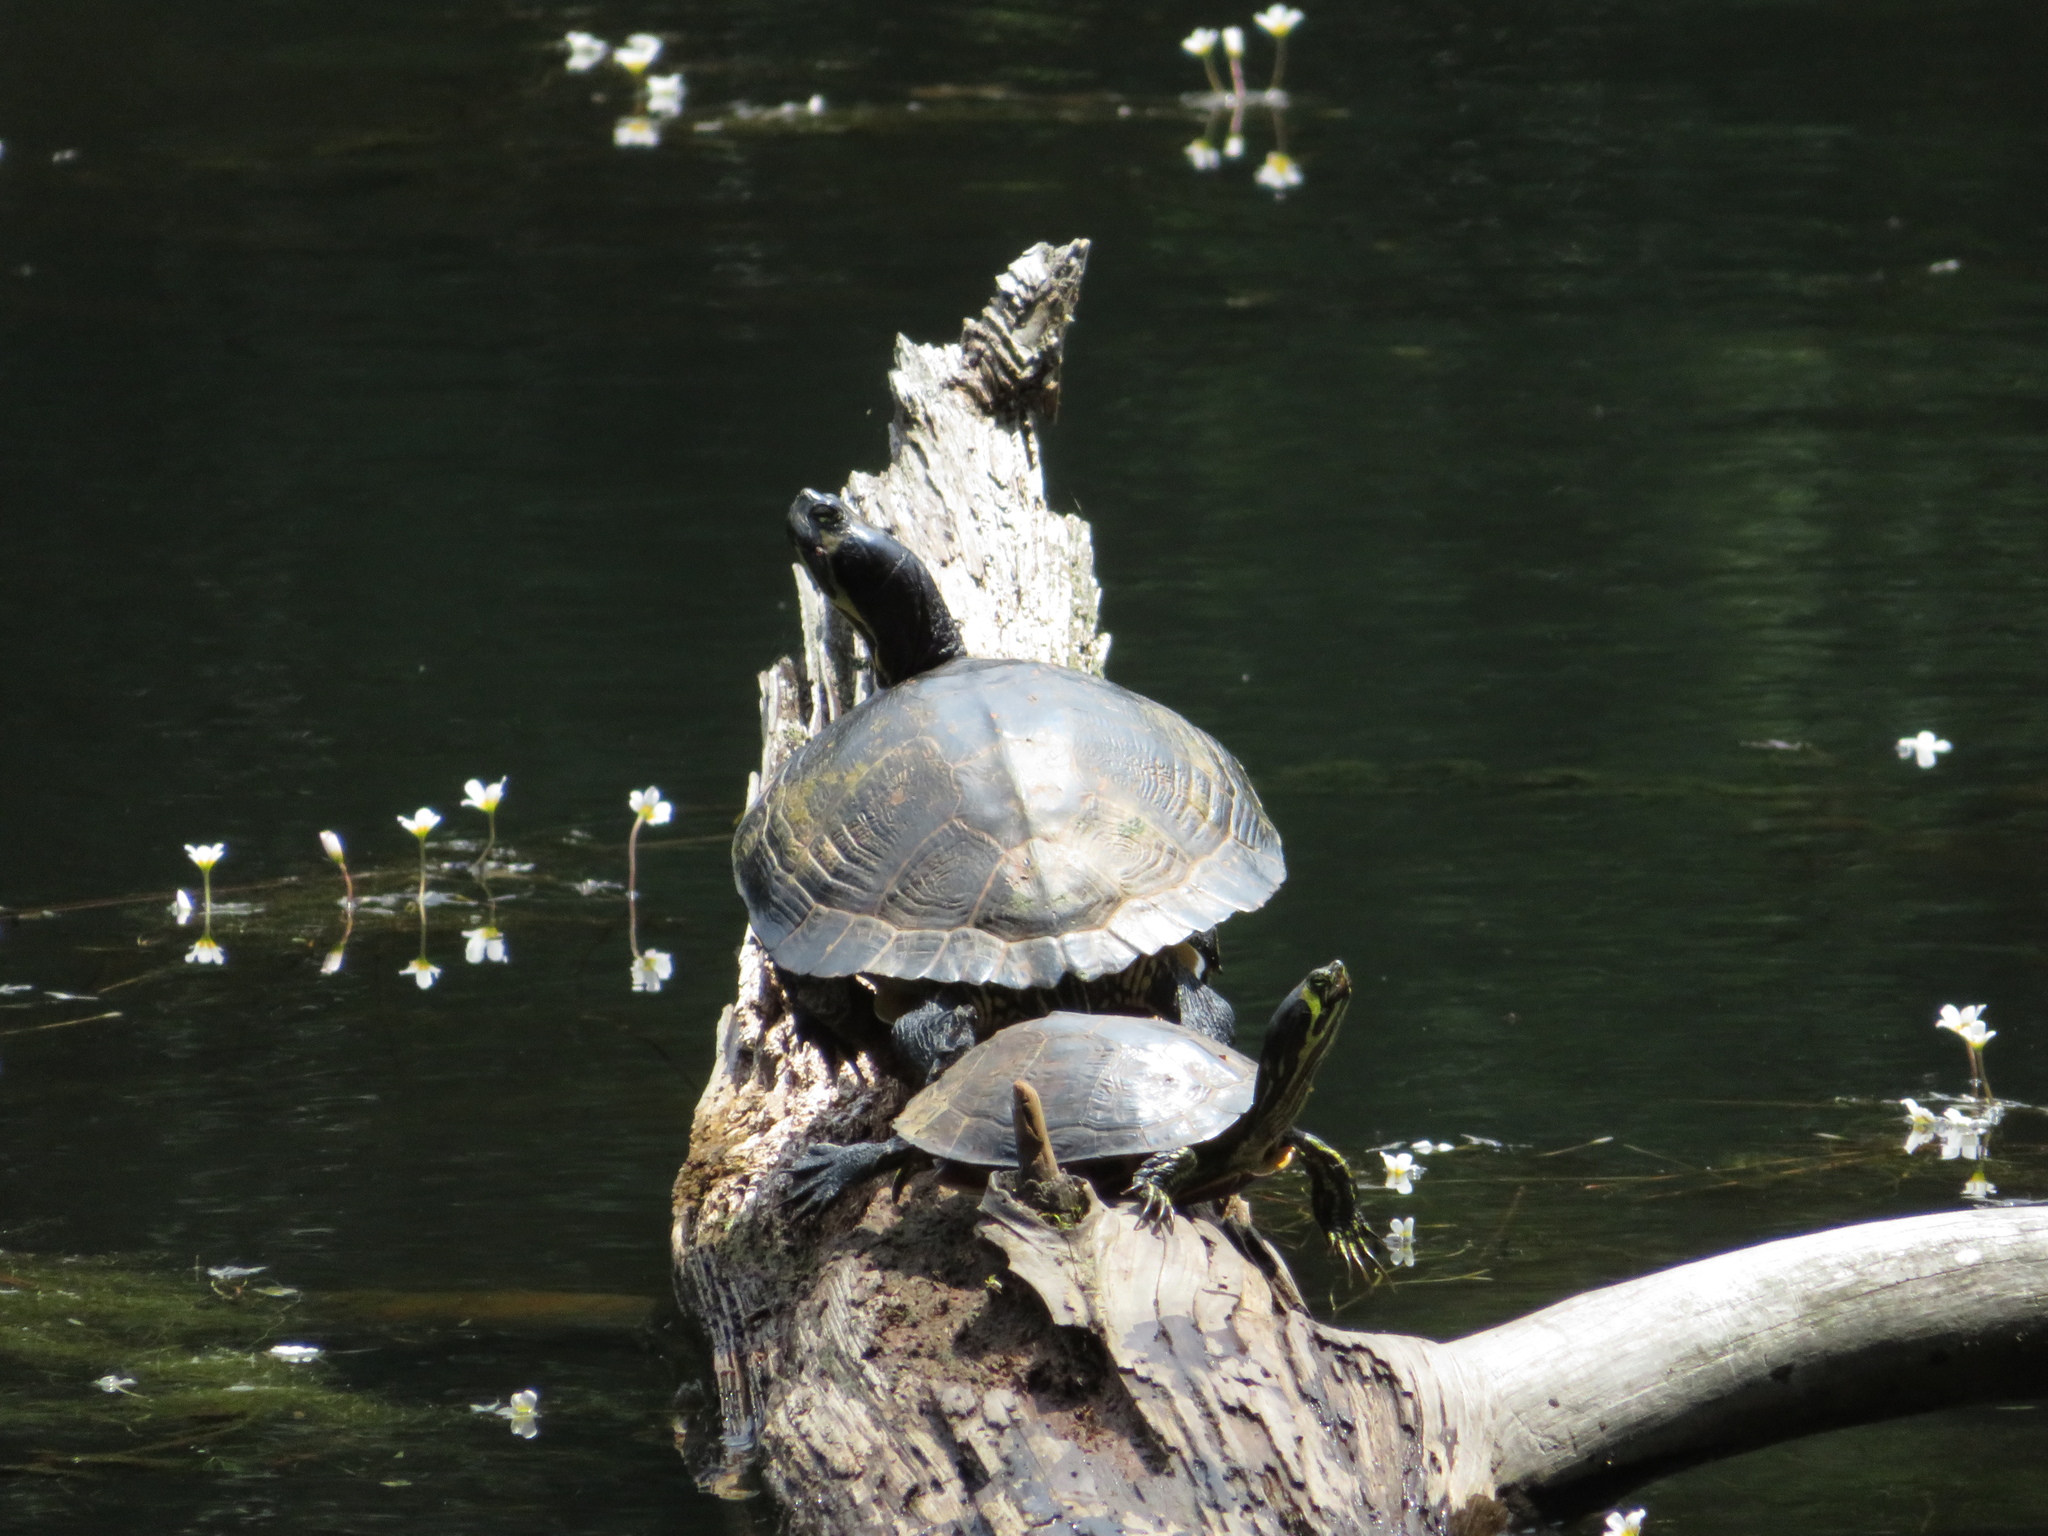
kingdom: Animalia
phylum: Chordata
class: Testudines
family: Emydidae
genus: Trachemys
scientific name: Trachemys scripta
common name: Slider
